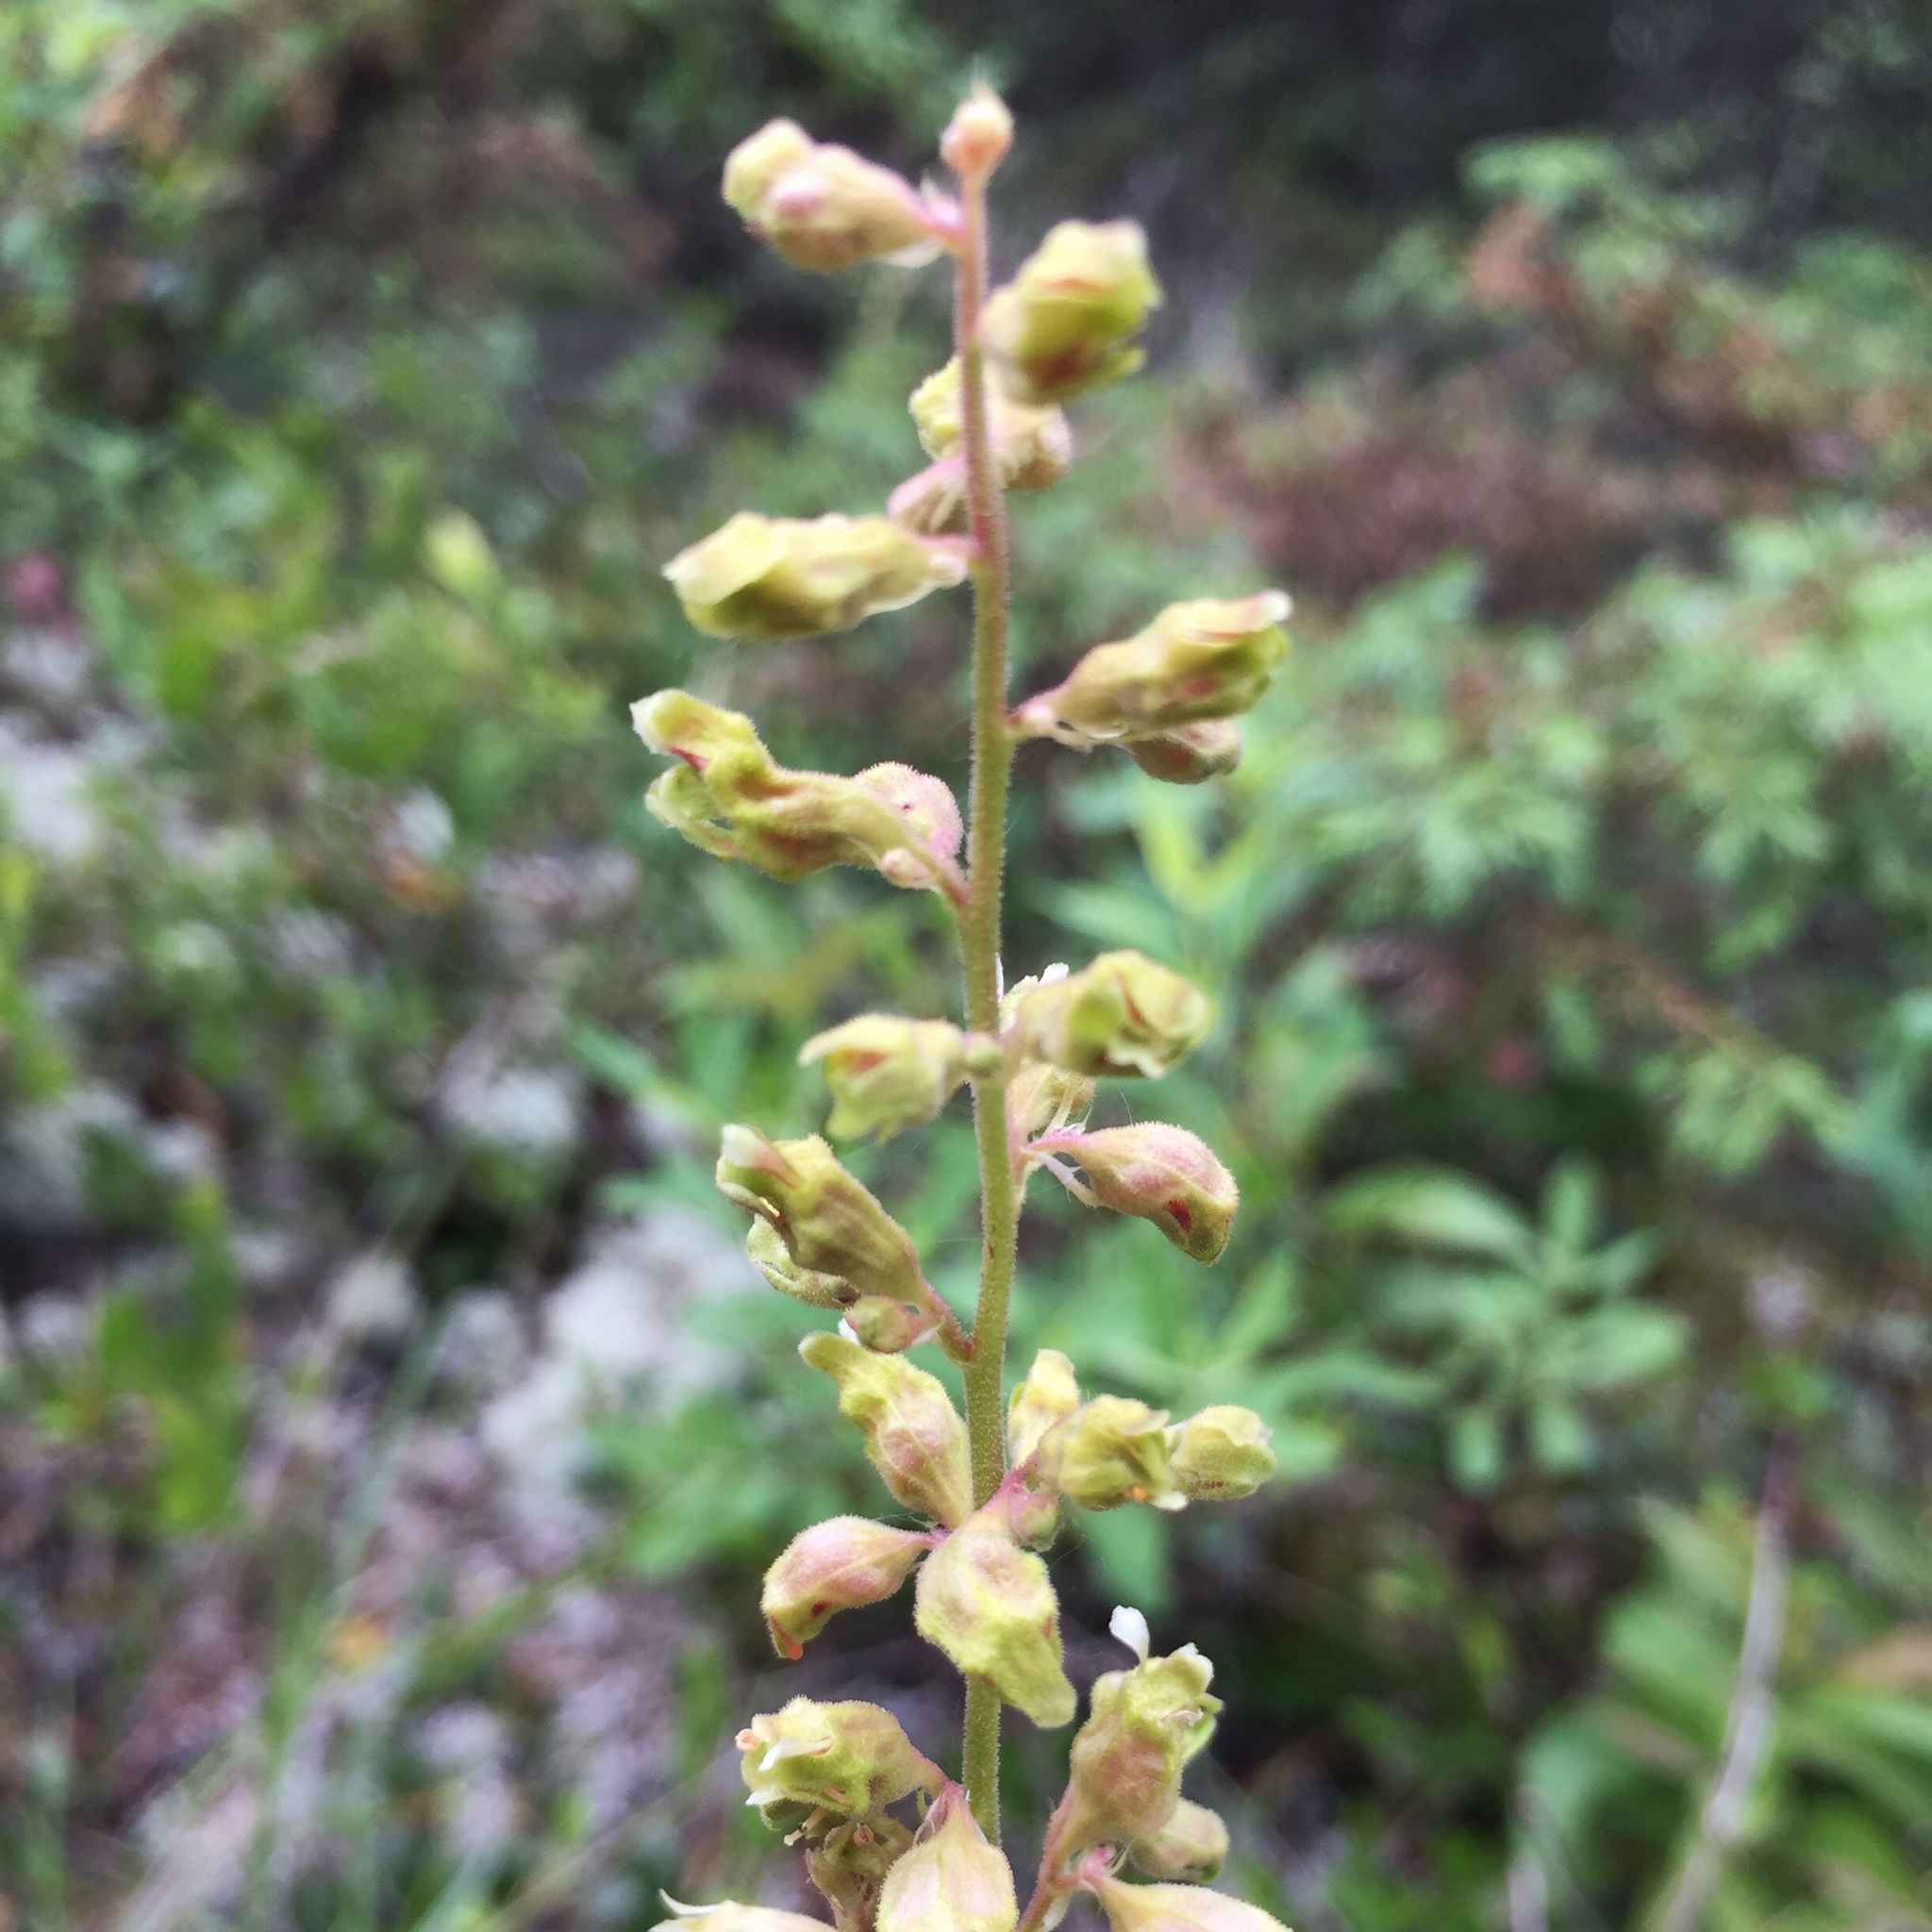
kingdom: Plantae
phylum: Tracheophyta
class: Magnoliopsida
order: Saxifragales
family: Saxifragaceae
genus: Heuchera
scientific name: Heuchera richardsonii
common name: Richardson's alumroot
